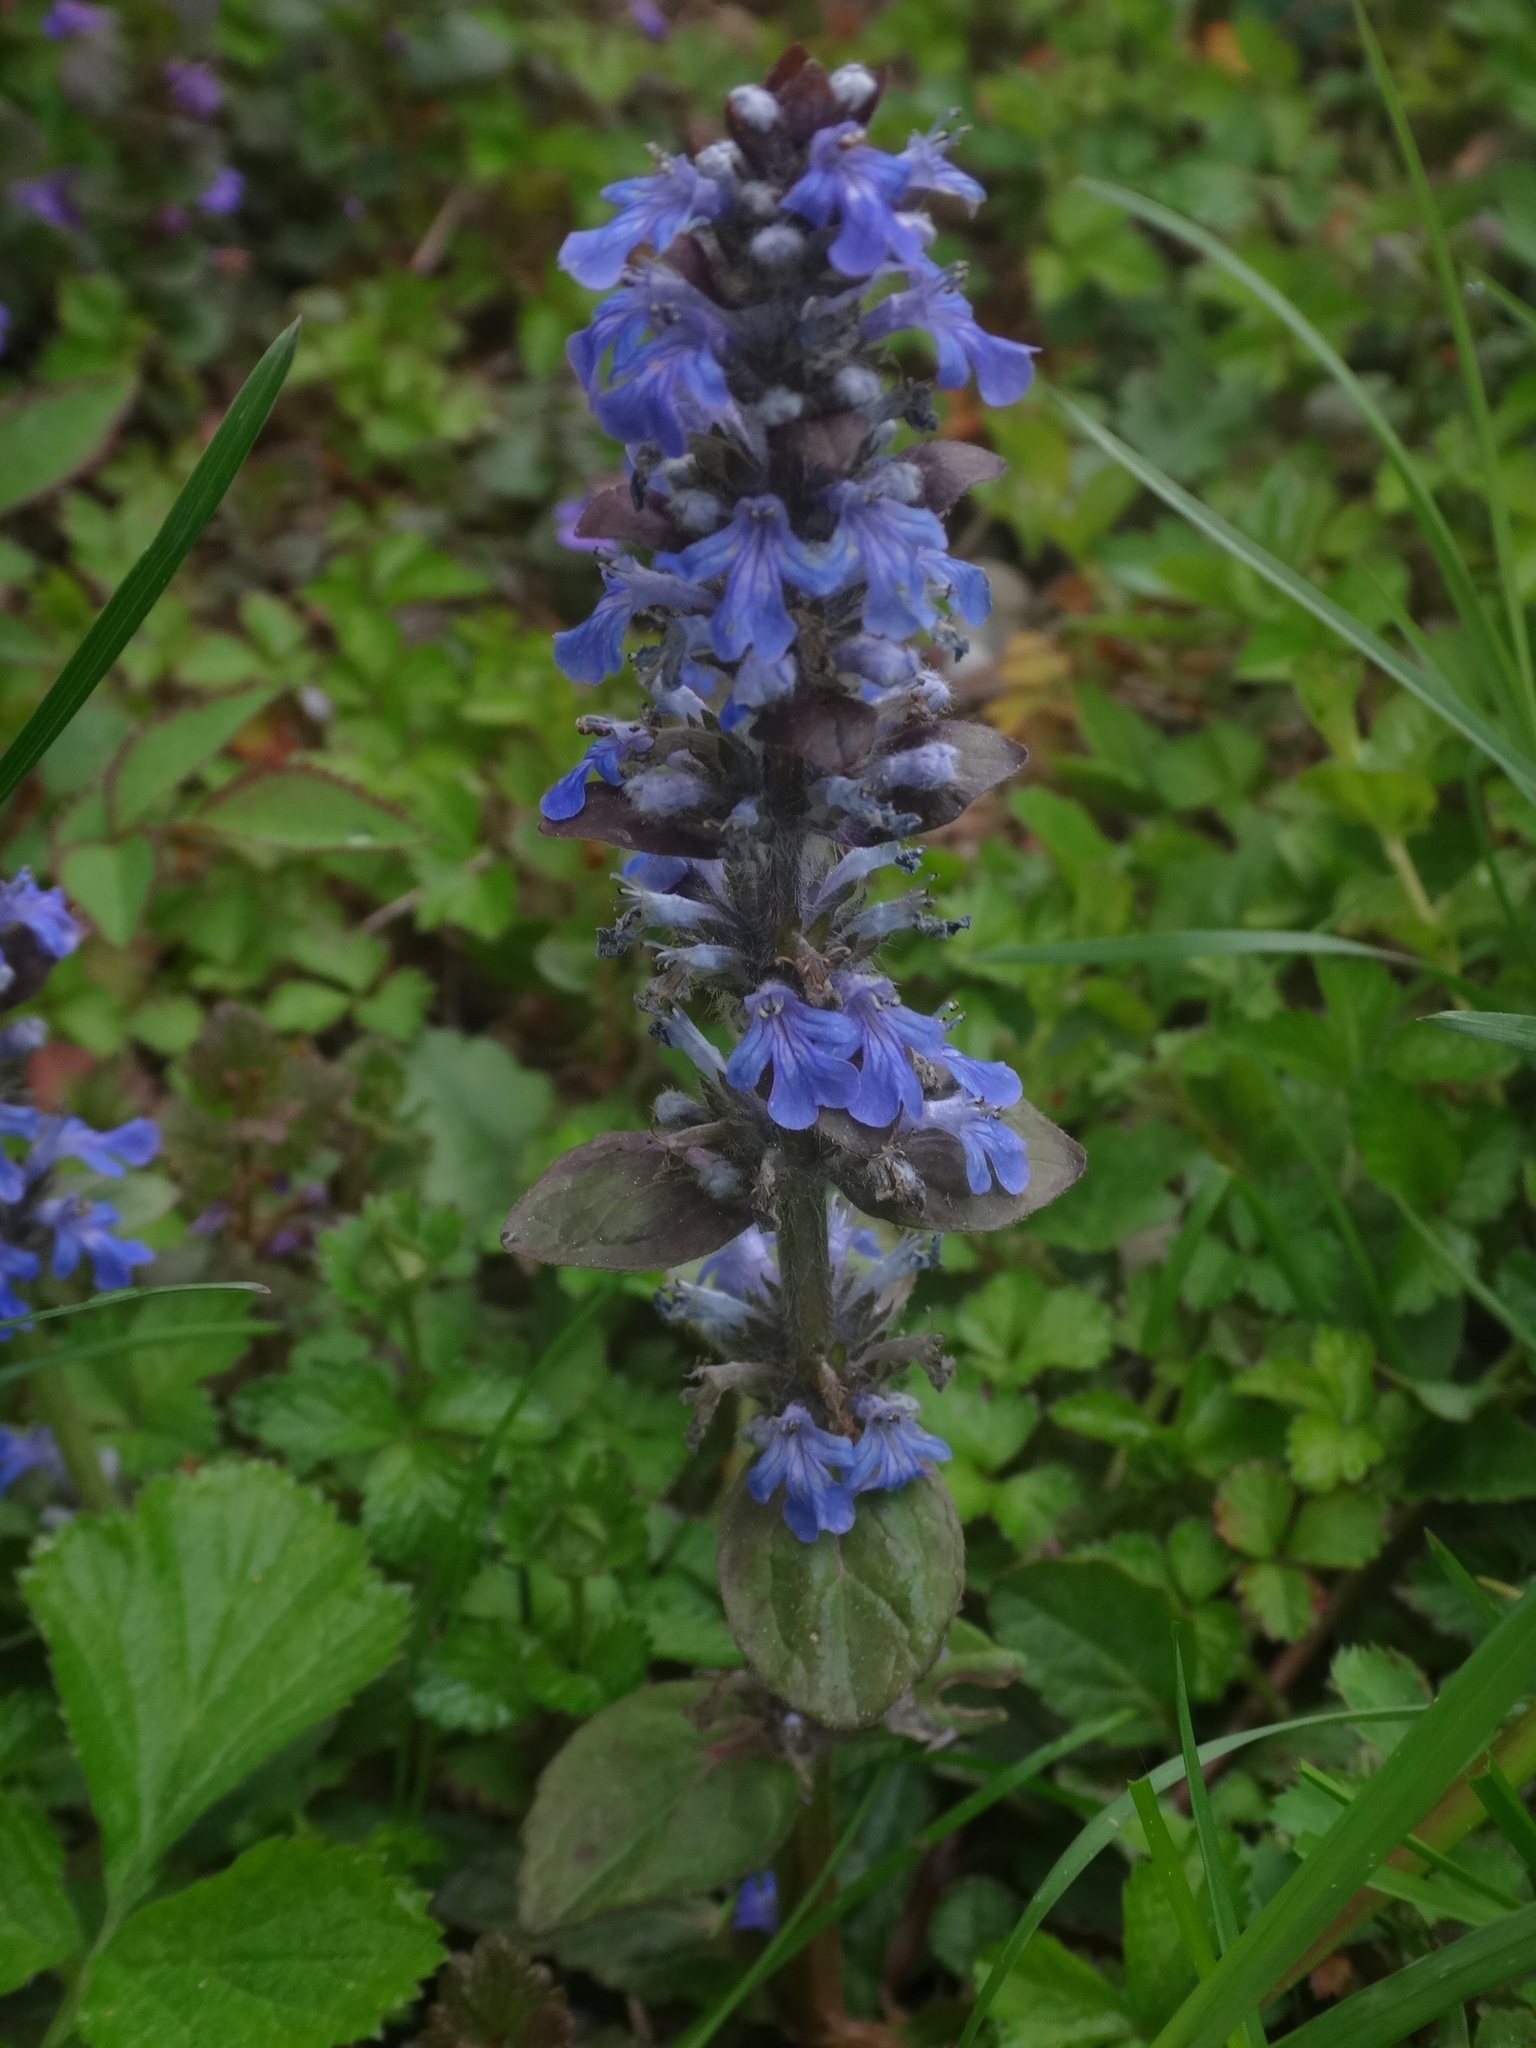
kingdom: Plantae
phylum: Tracheophyta
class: Magnoliopsida
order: Lamiales
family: Lamiaceae
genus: Ajuga
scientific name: Ajuga reptans
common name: Bugle
